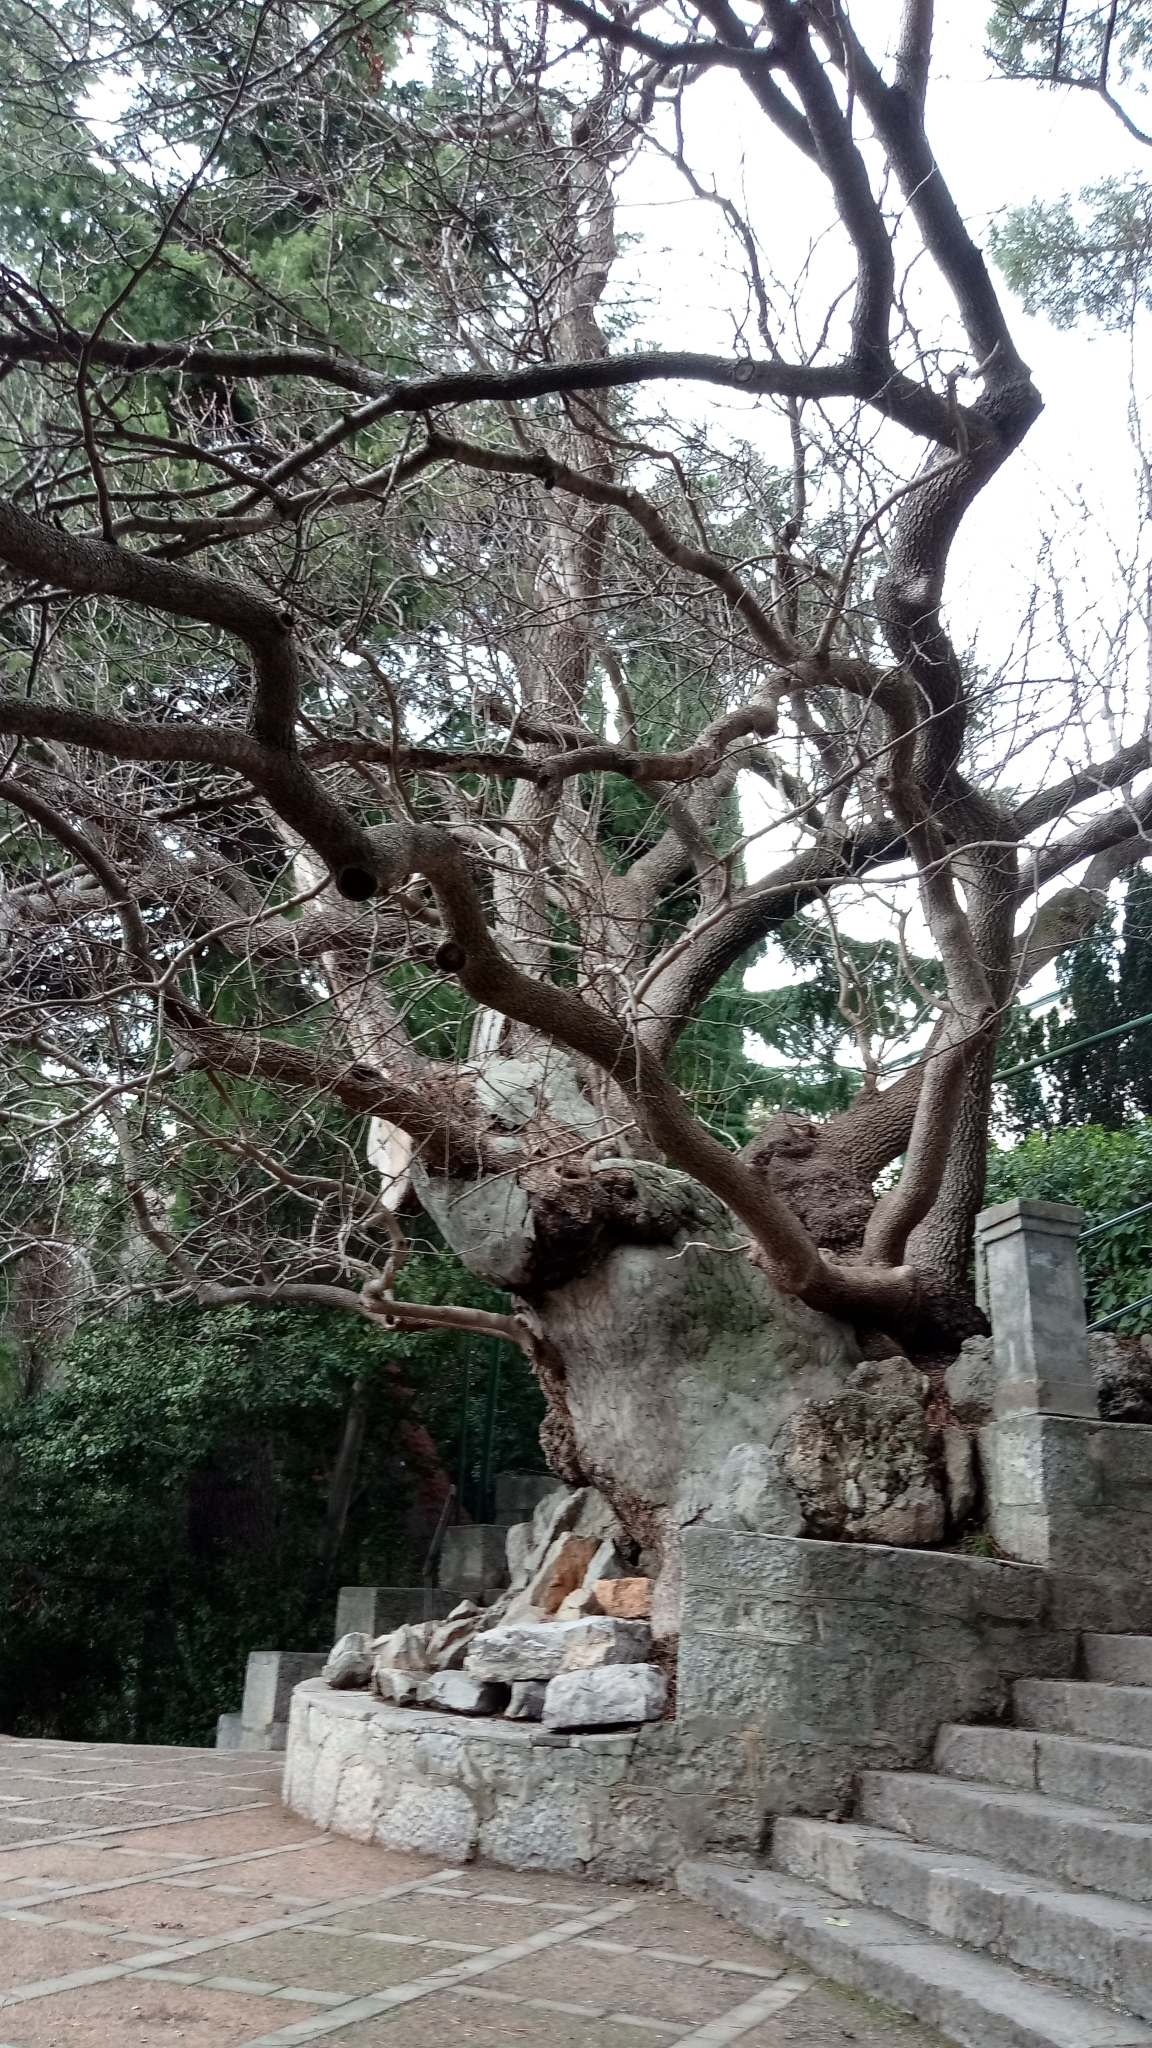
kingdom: Plantae
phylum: Tracheophyta
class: Magnoliopsida
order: Sapindales
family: Anacardiaceae
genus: Pistacia
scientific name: Pistacia atlantica
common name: Mt. atlas mastic tree
